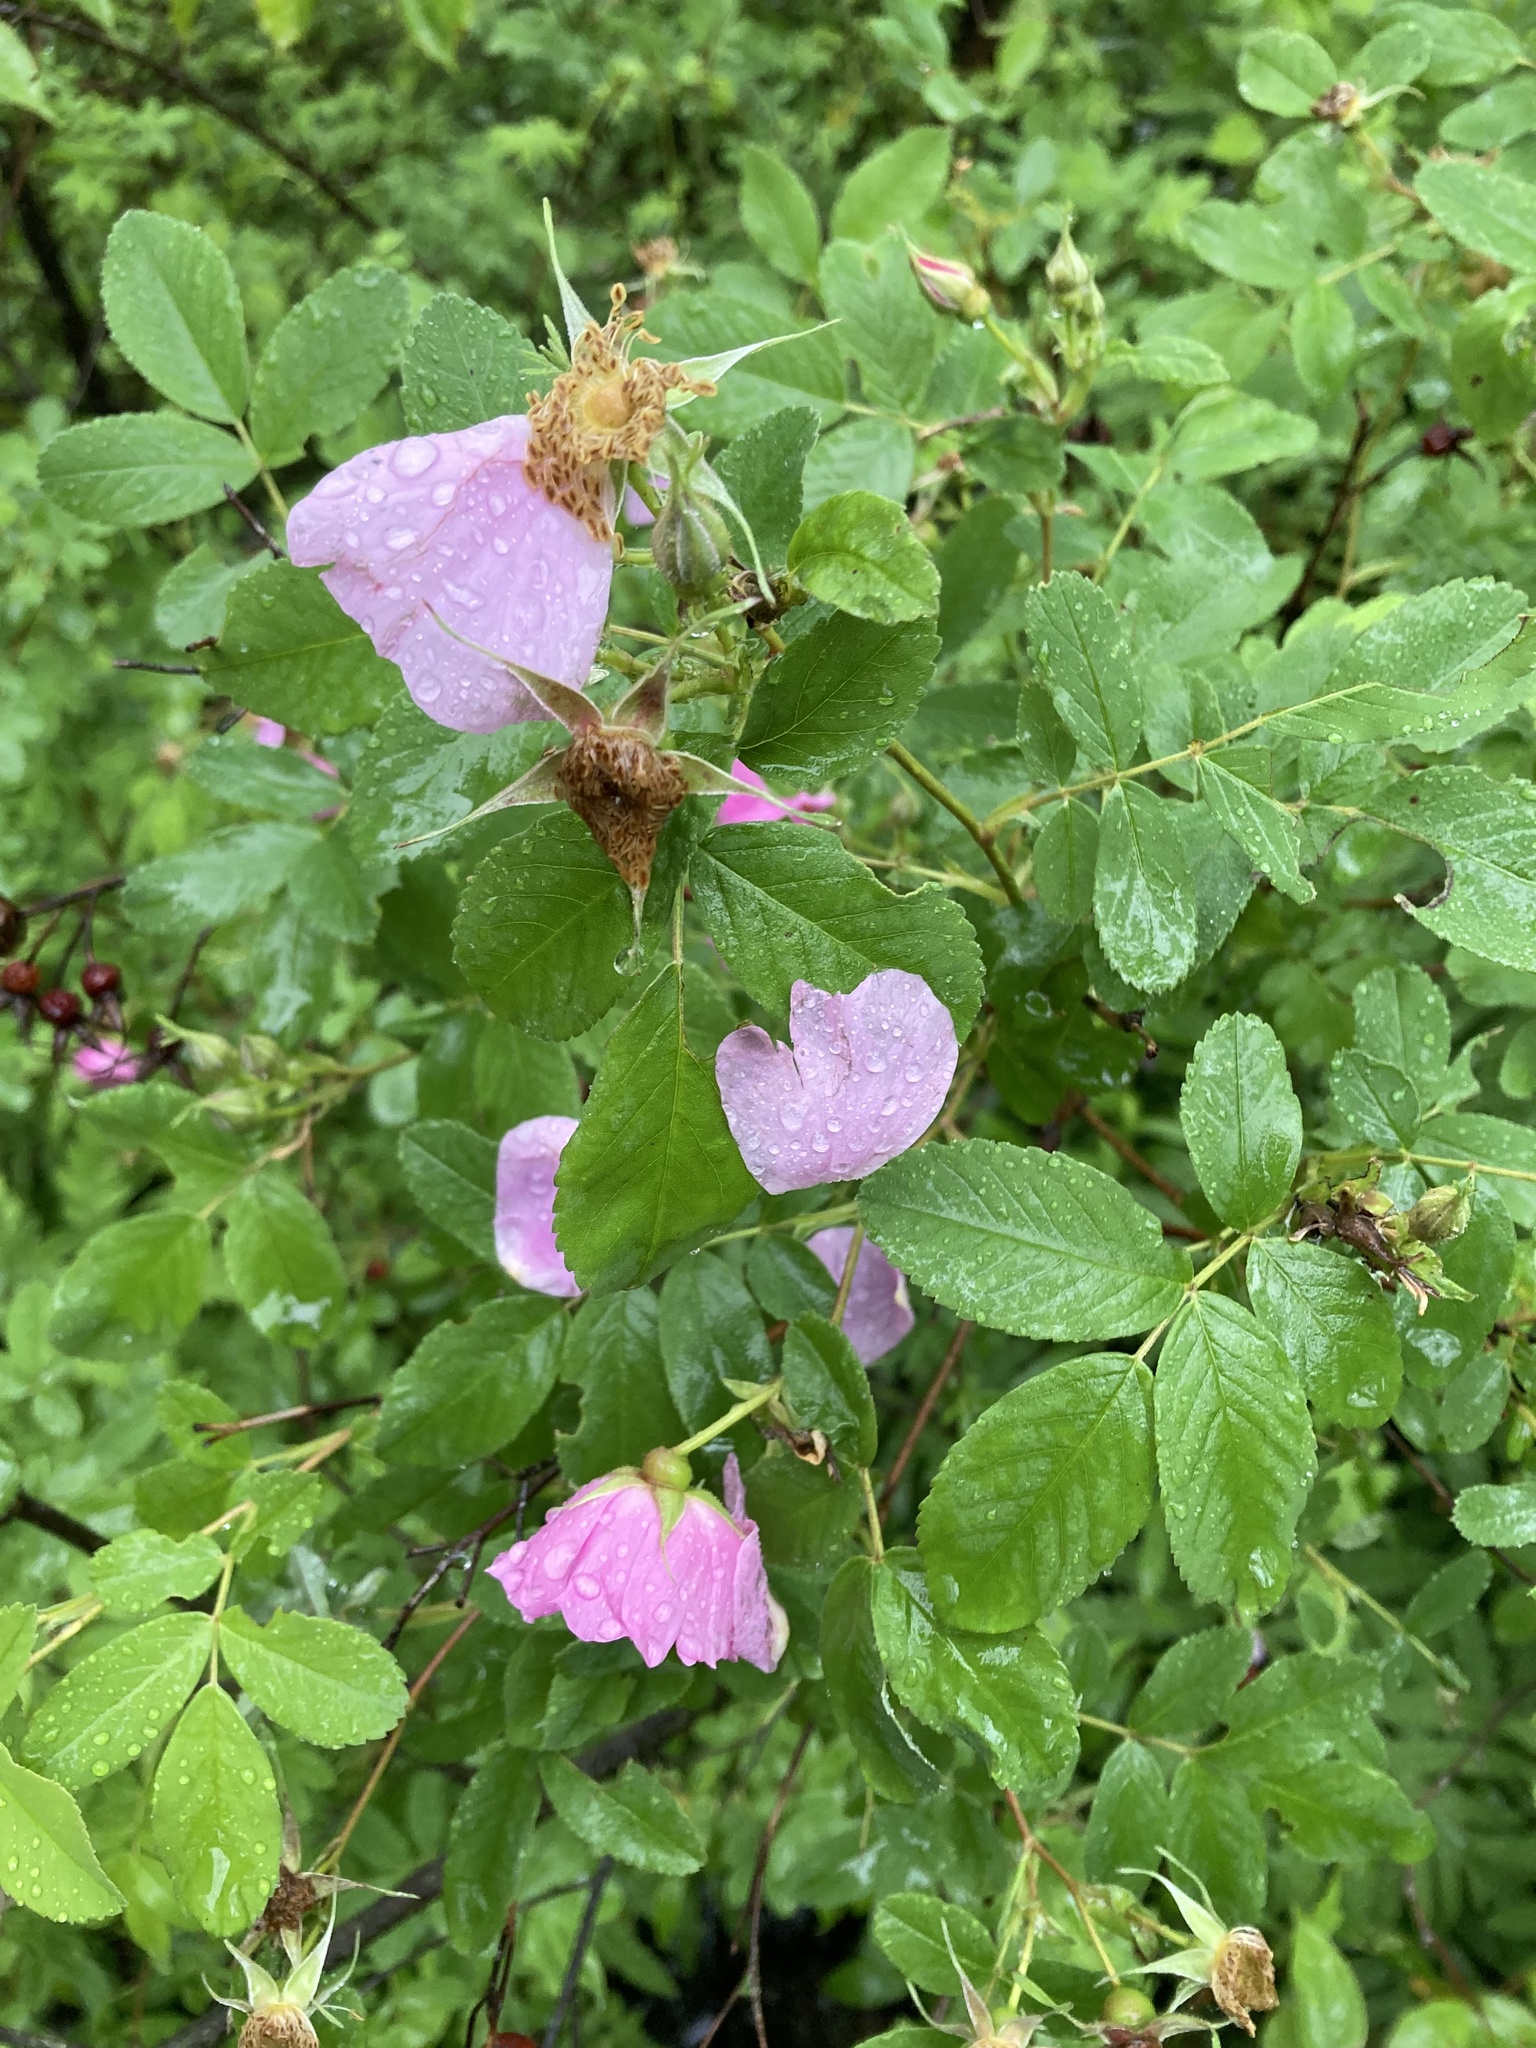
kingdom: Plantae
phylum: Tracheophyta
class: Magnoliopsida
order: Rosales
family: Rosaceae
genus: Rosa
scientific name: Rosa blanda
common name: Smooth rose
